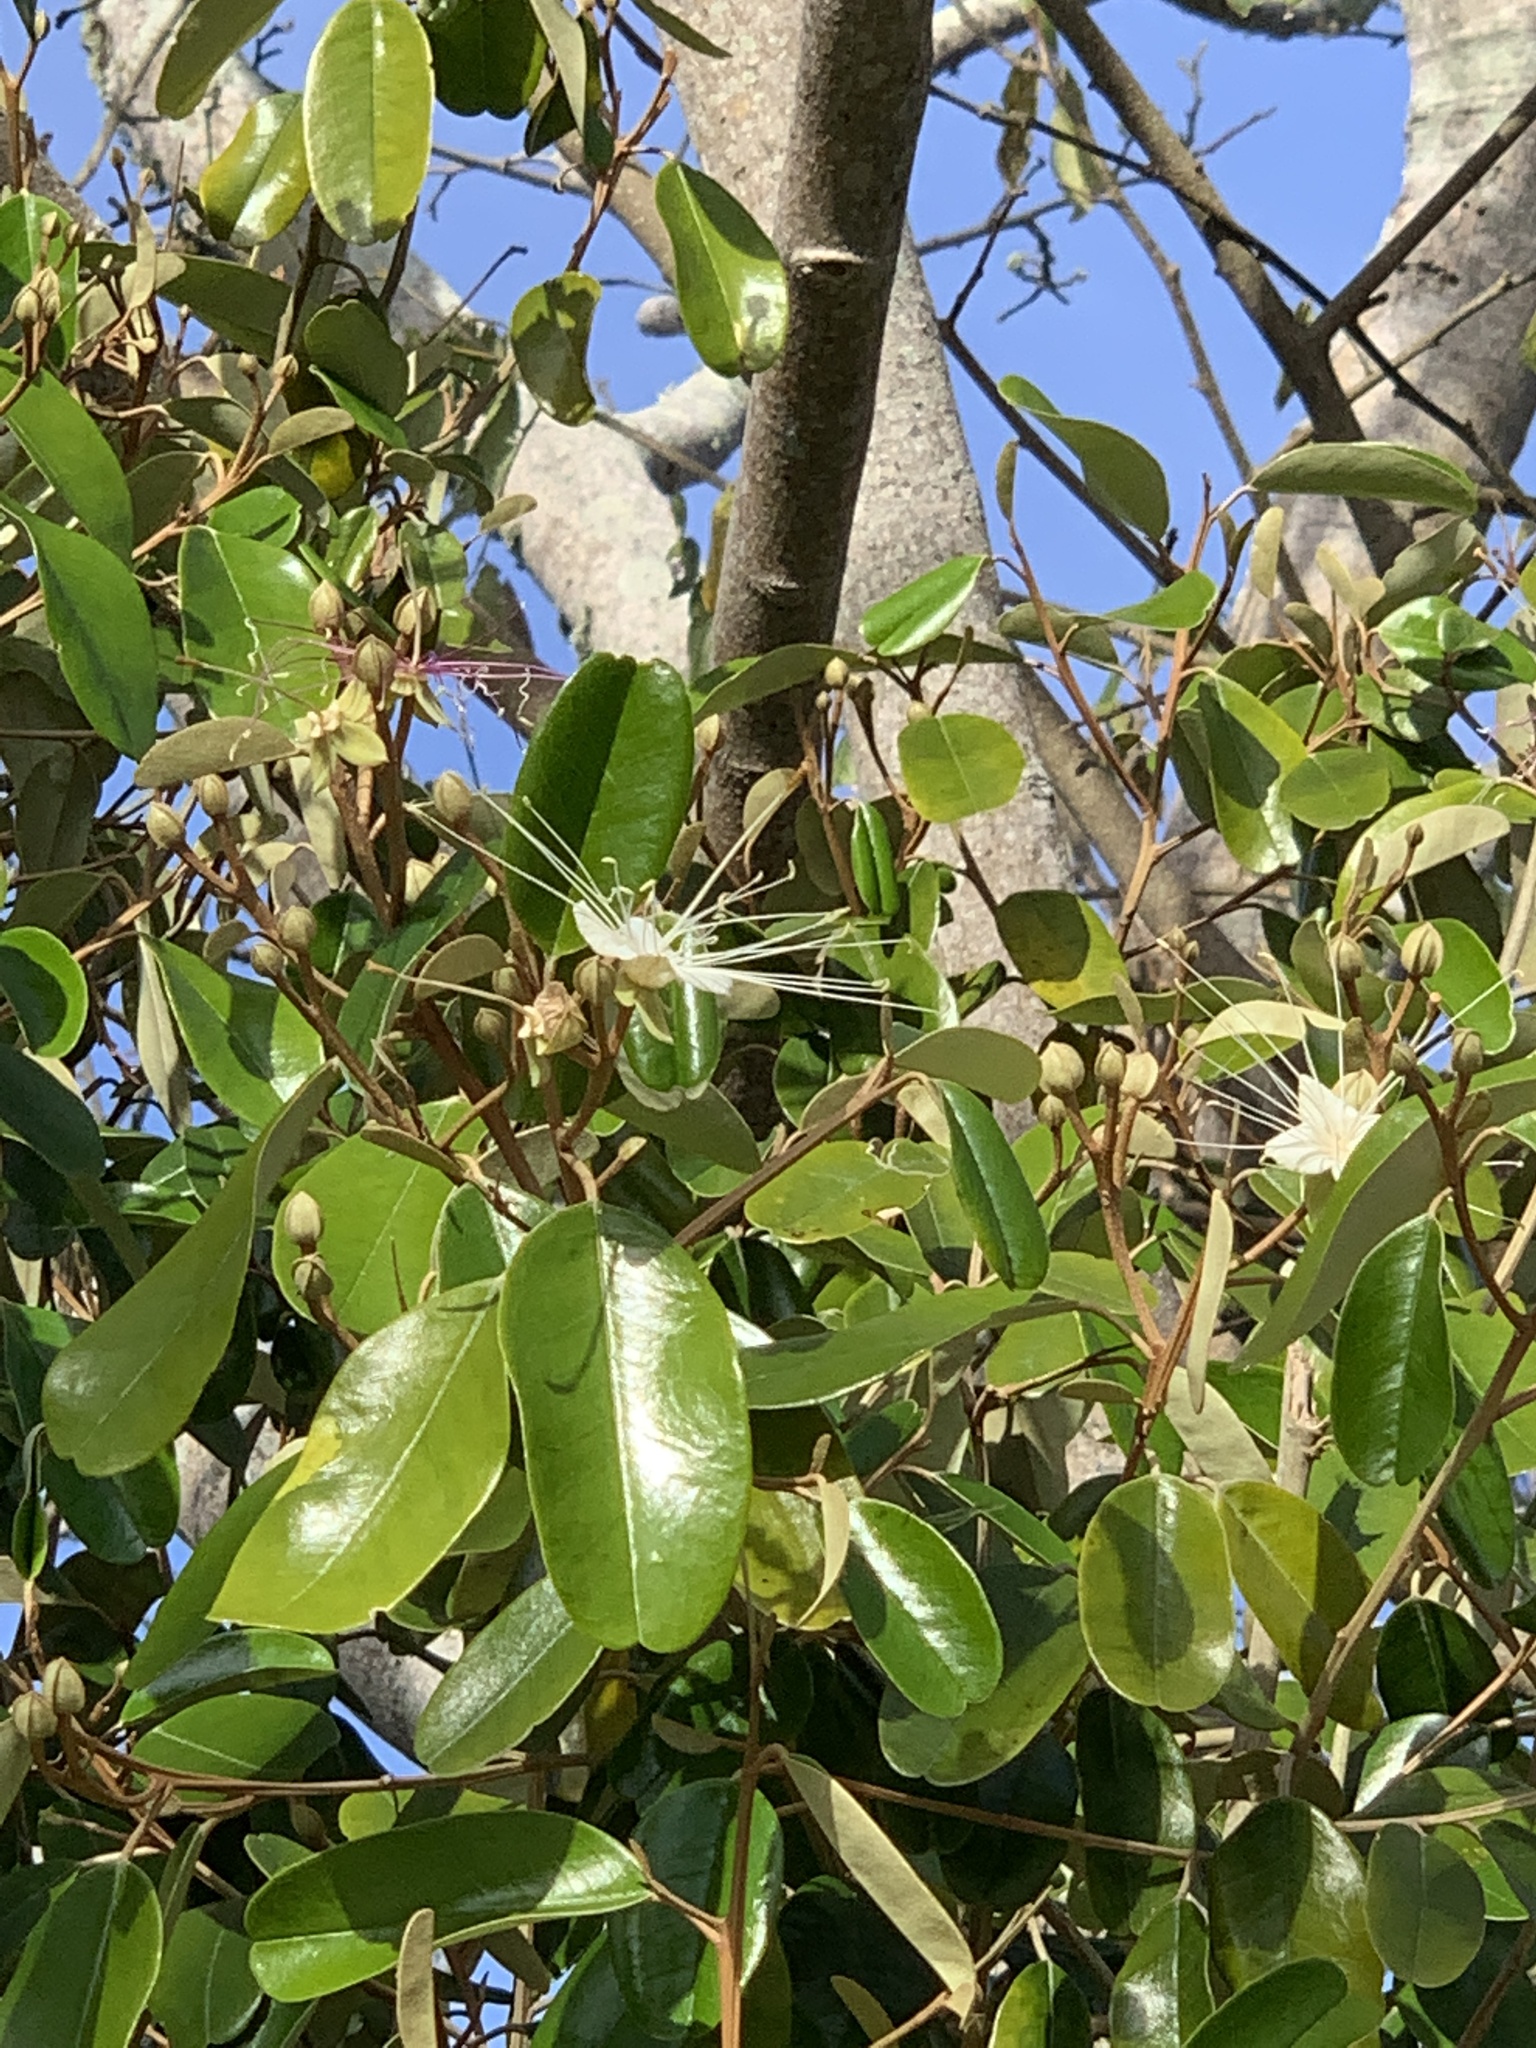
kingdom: Plantae
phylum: Tracheophyta
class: Magnoliopsida
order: Brassicales
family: Capparaceae
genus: Quadrella
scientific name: Quadrella cynophallophora
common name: Black willow
